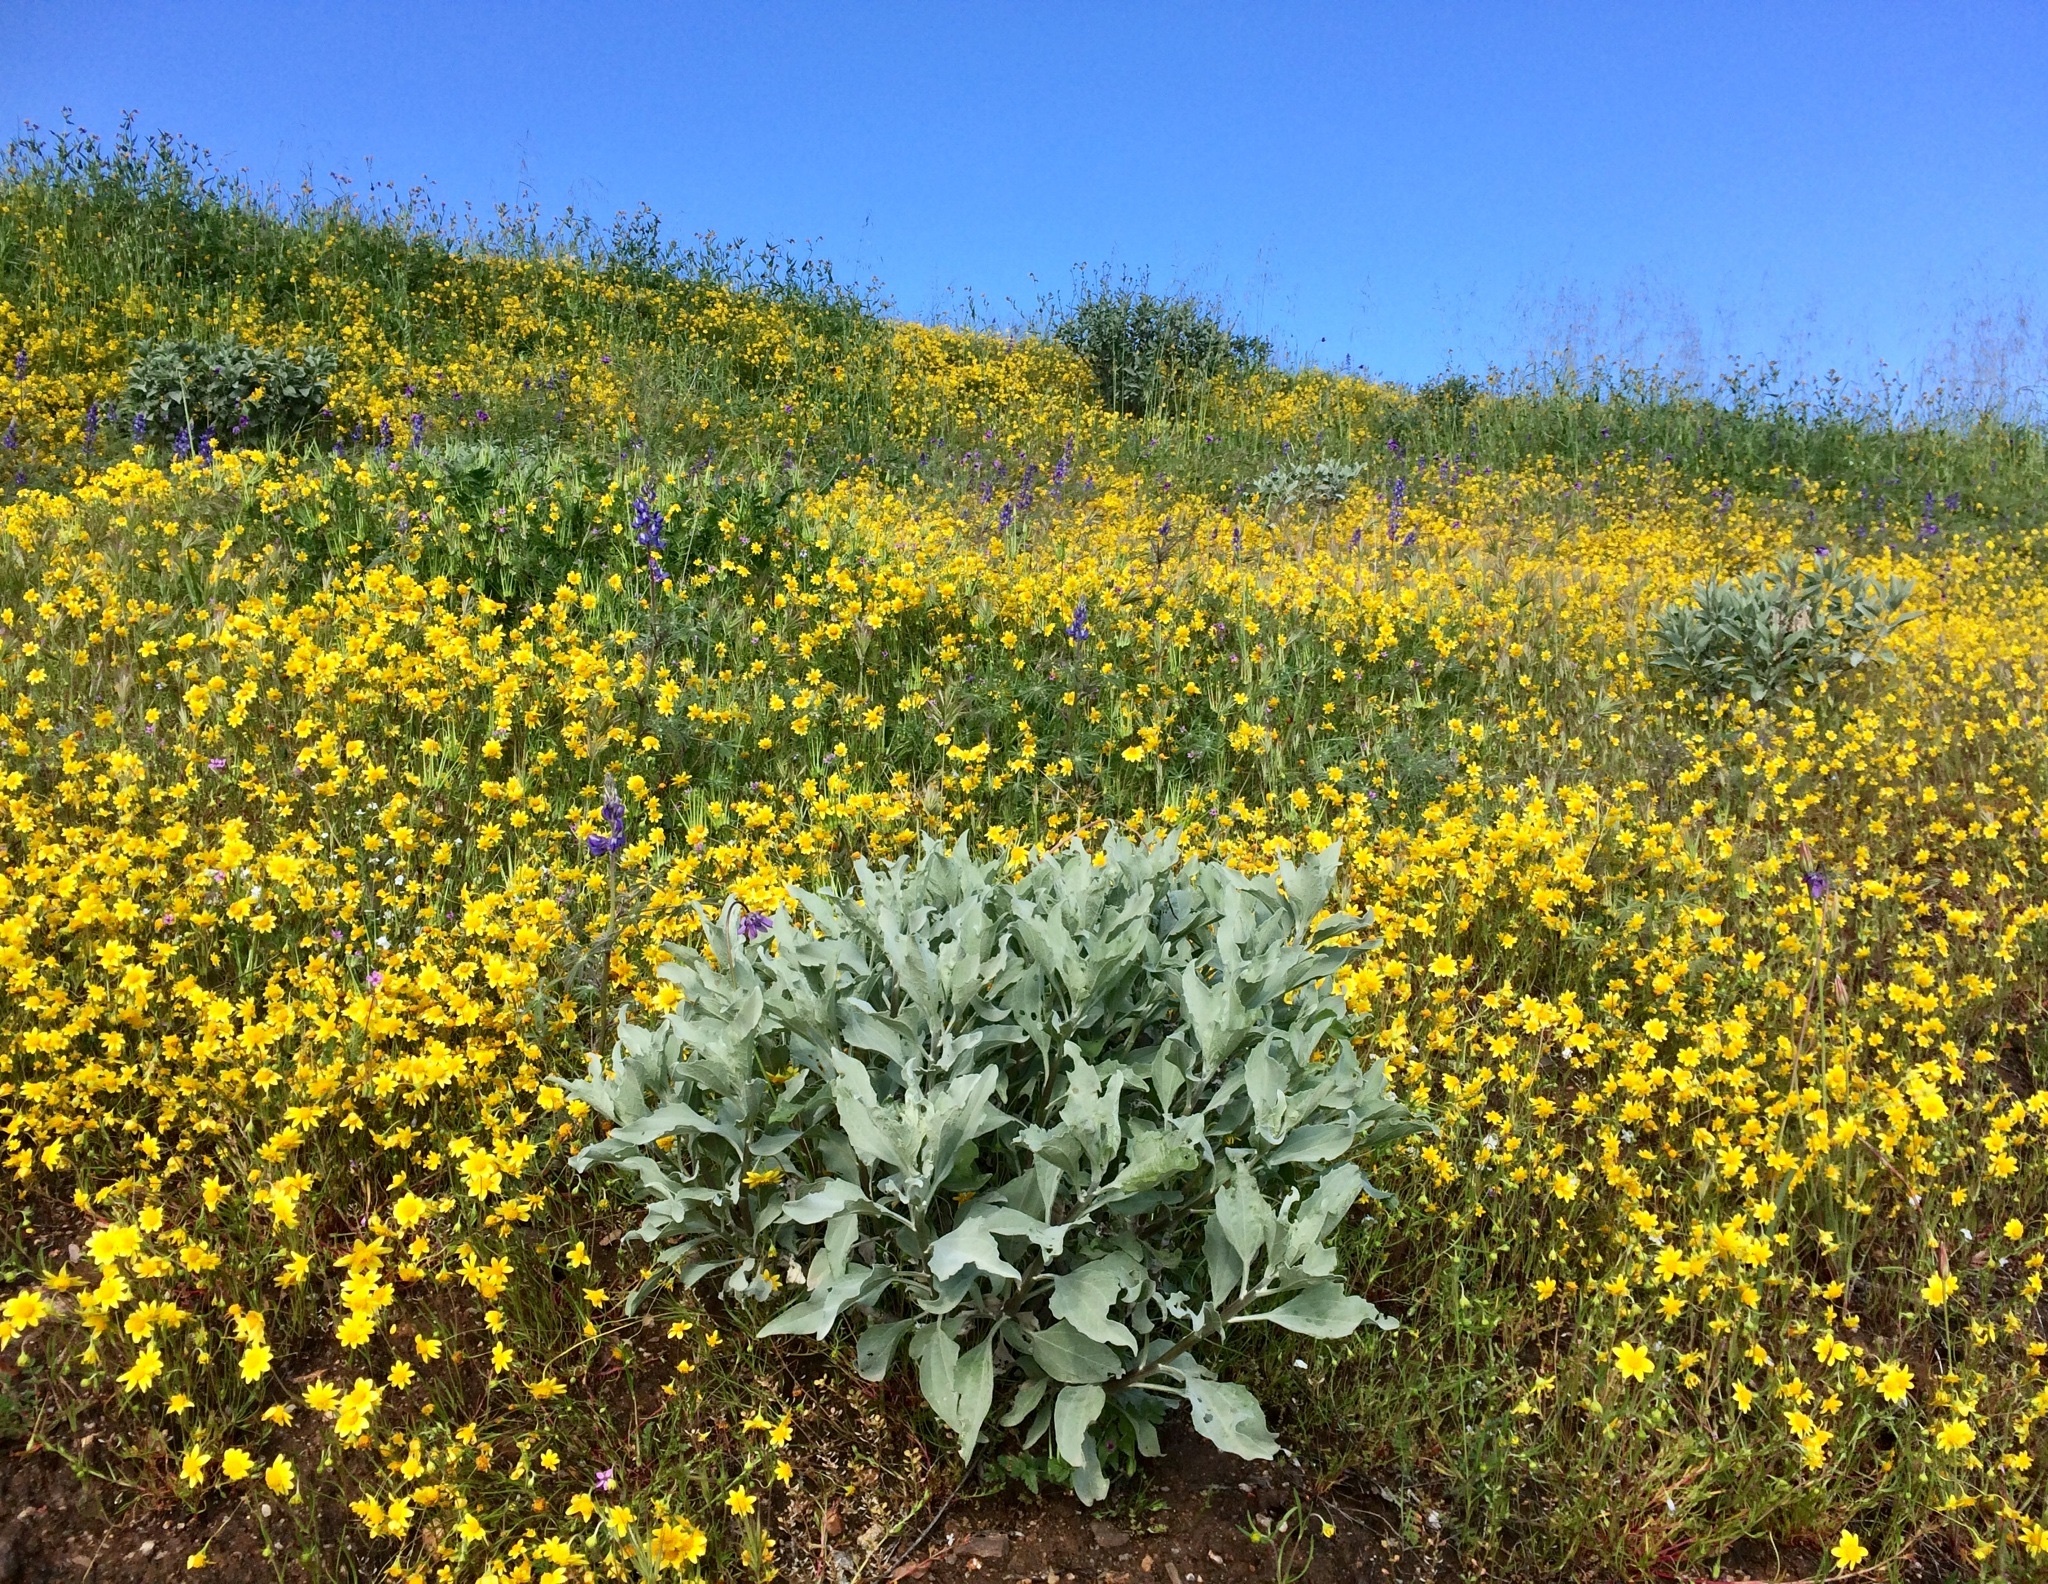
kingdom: Plantae
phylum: Tracheophyta
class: Magnoliopsida
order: Asterales
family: Asteraceae
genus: Encelia
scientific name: Encelia farinosa
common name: Brittlebush
